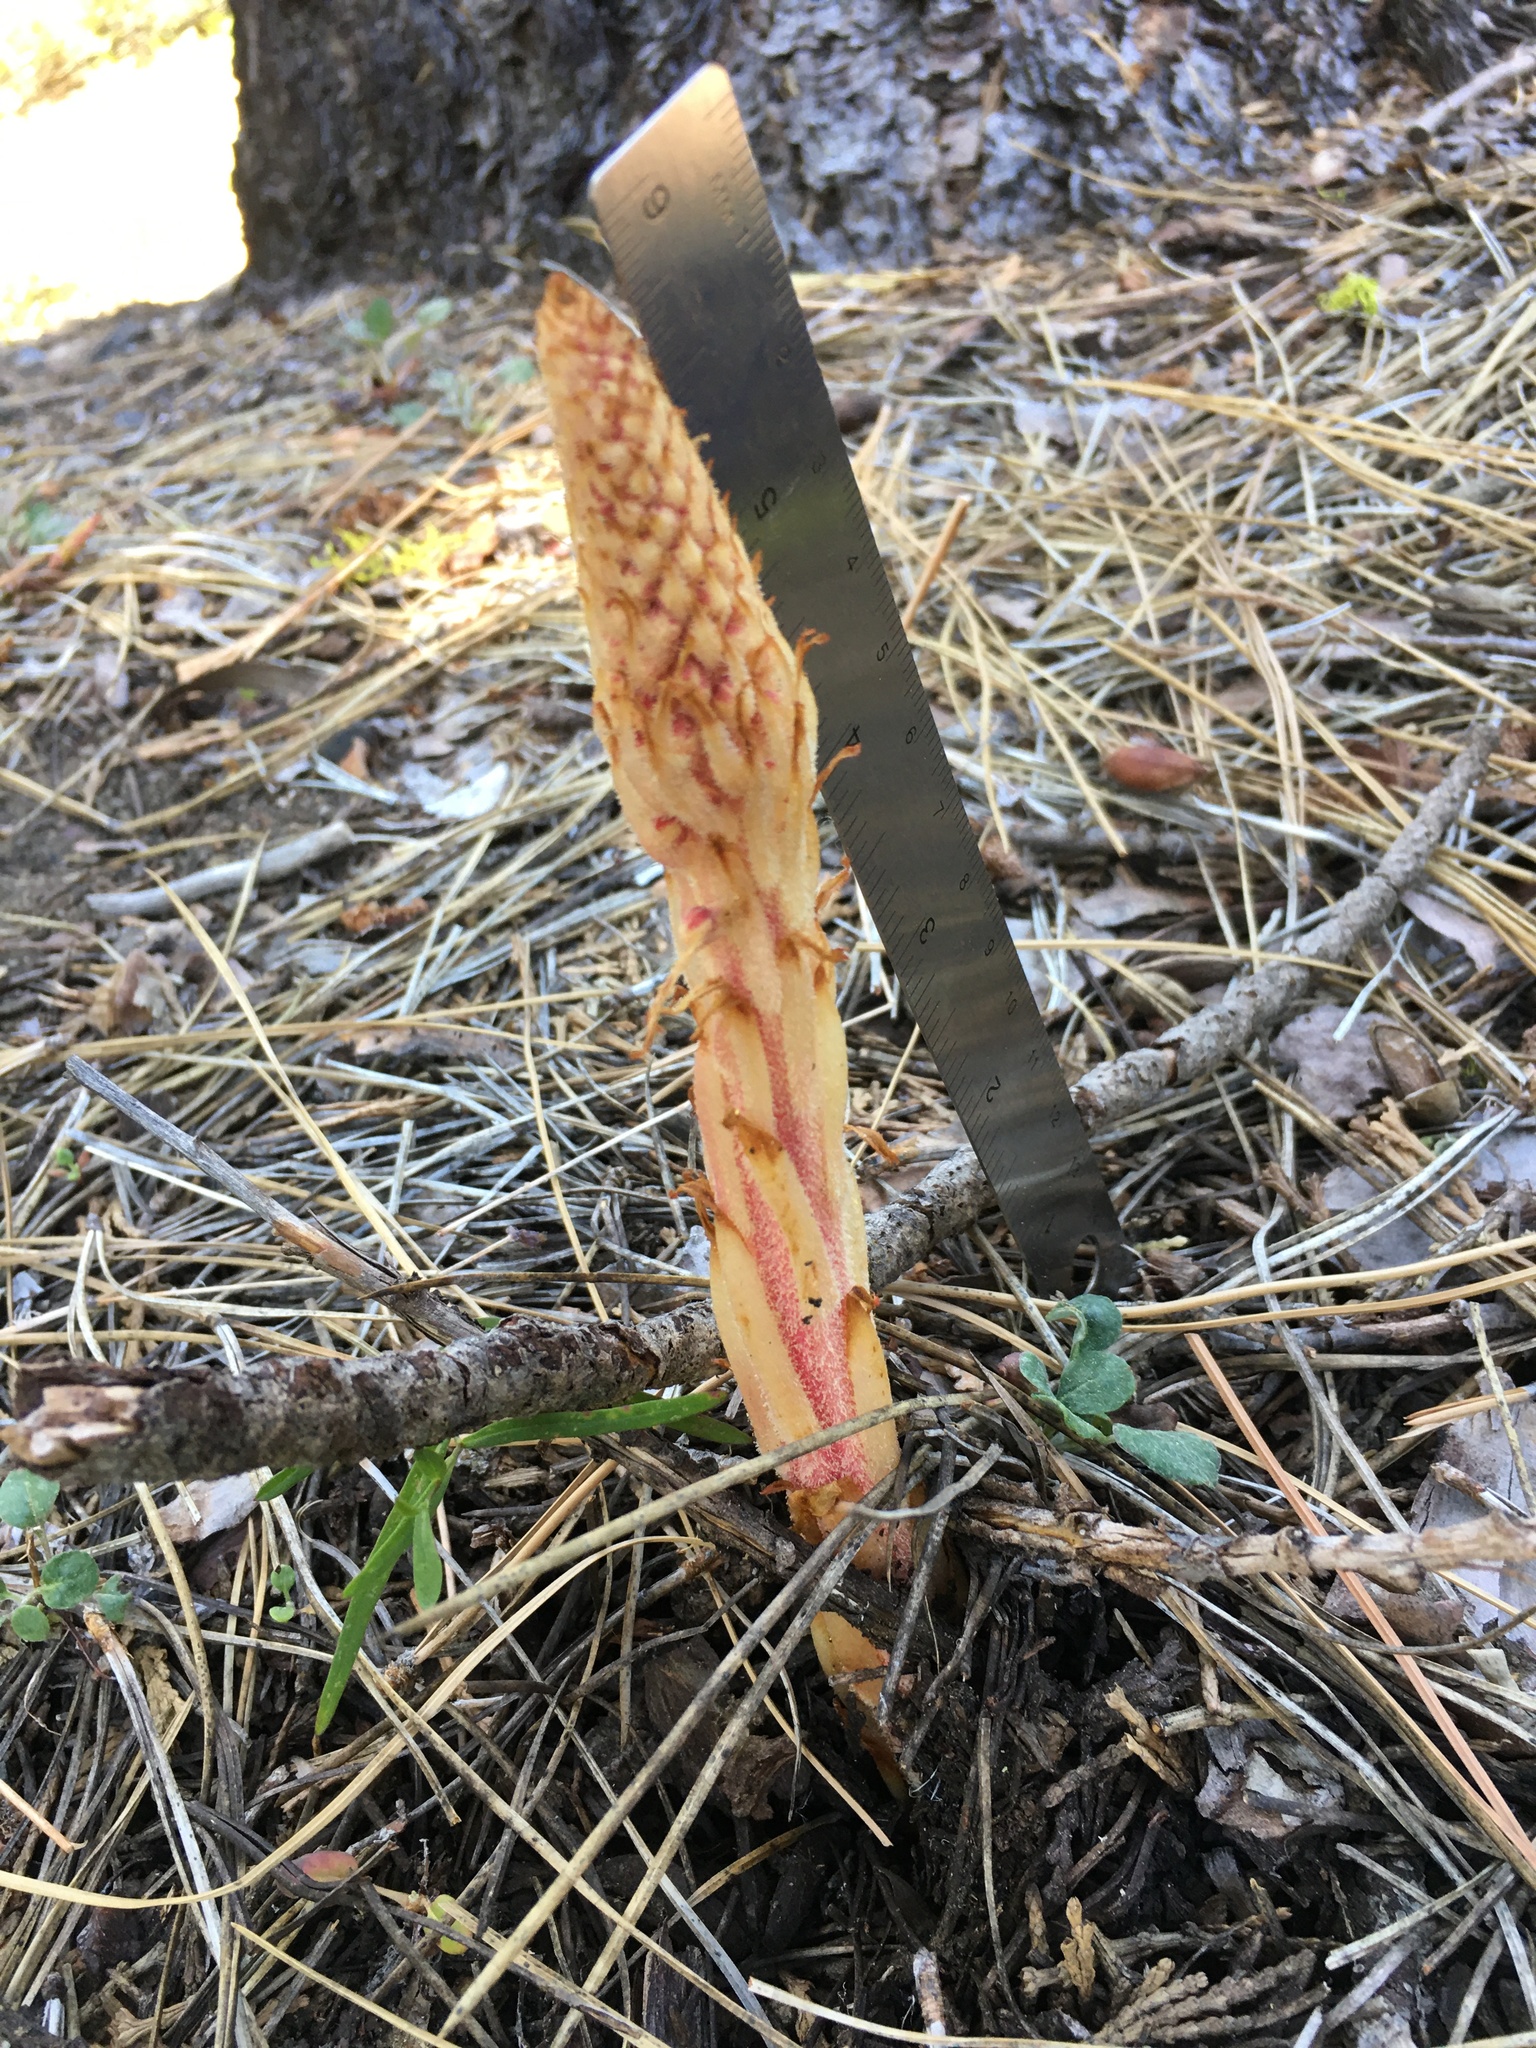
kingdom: Plantae
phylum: Tracheophyta
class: Magnoliopsida
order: Ericales
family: Ericaceae
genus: Pterospora
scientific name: Pterospora andromedea
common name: Giant bird's-nest
